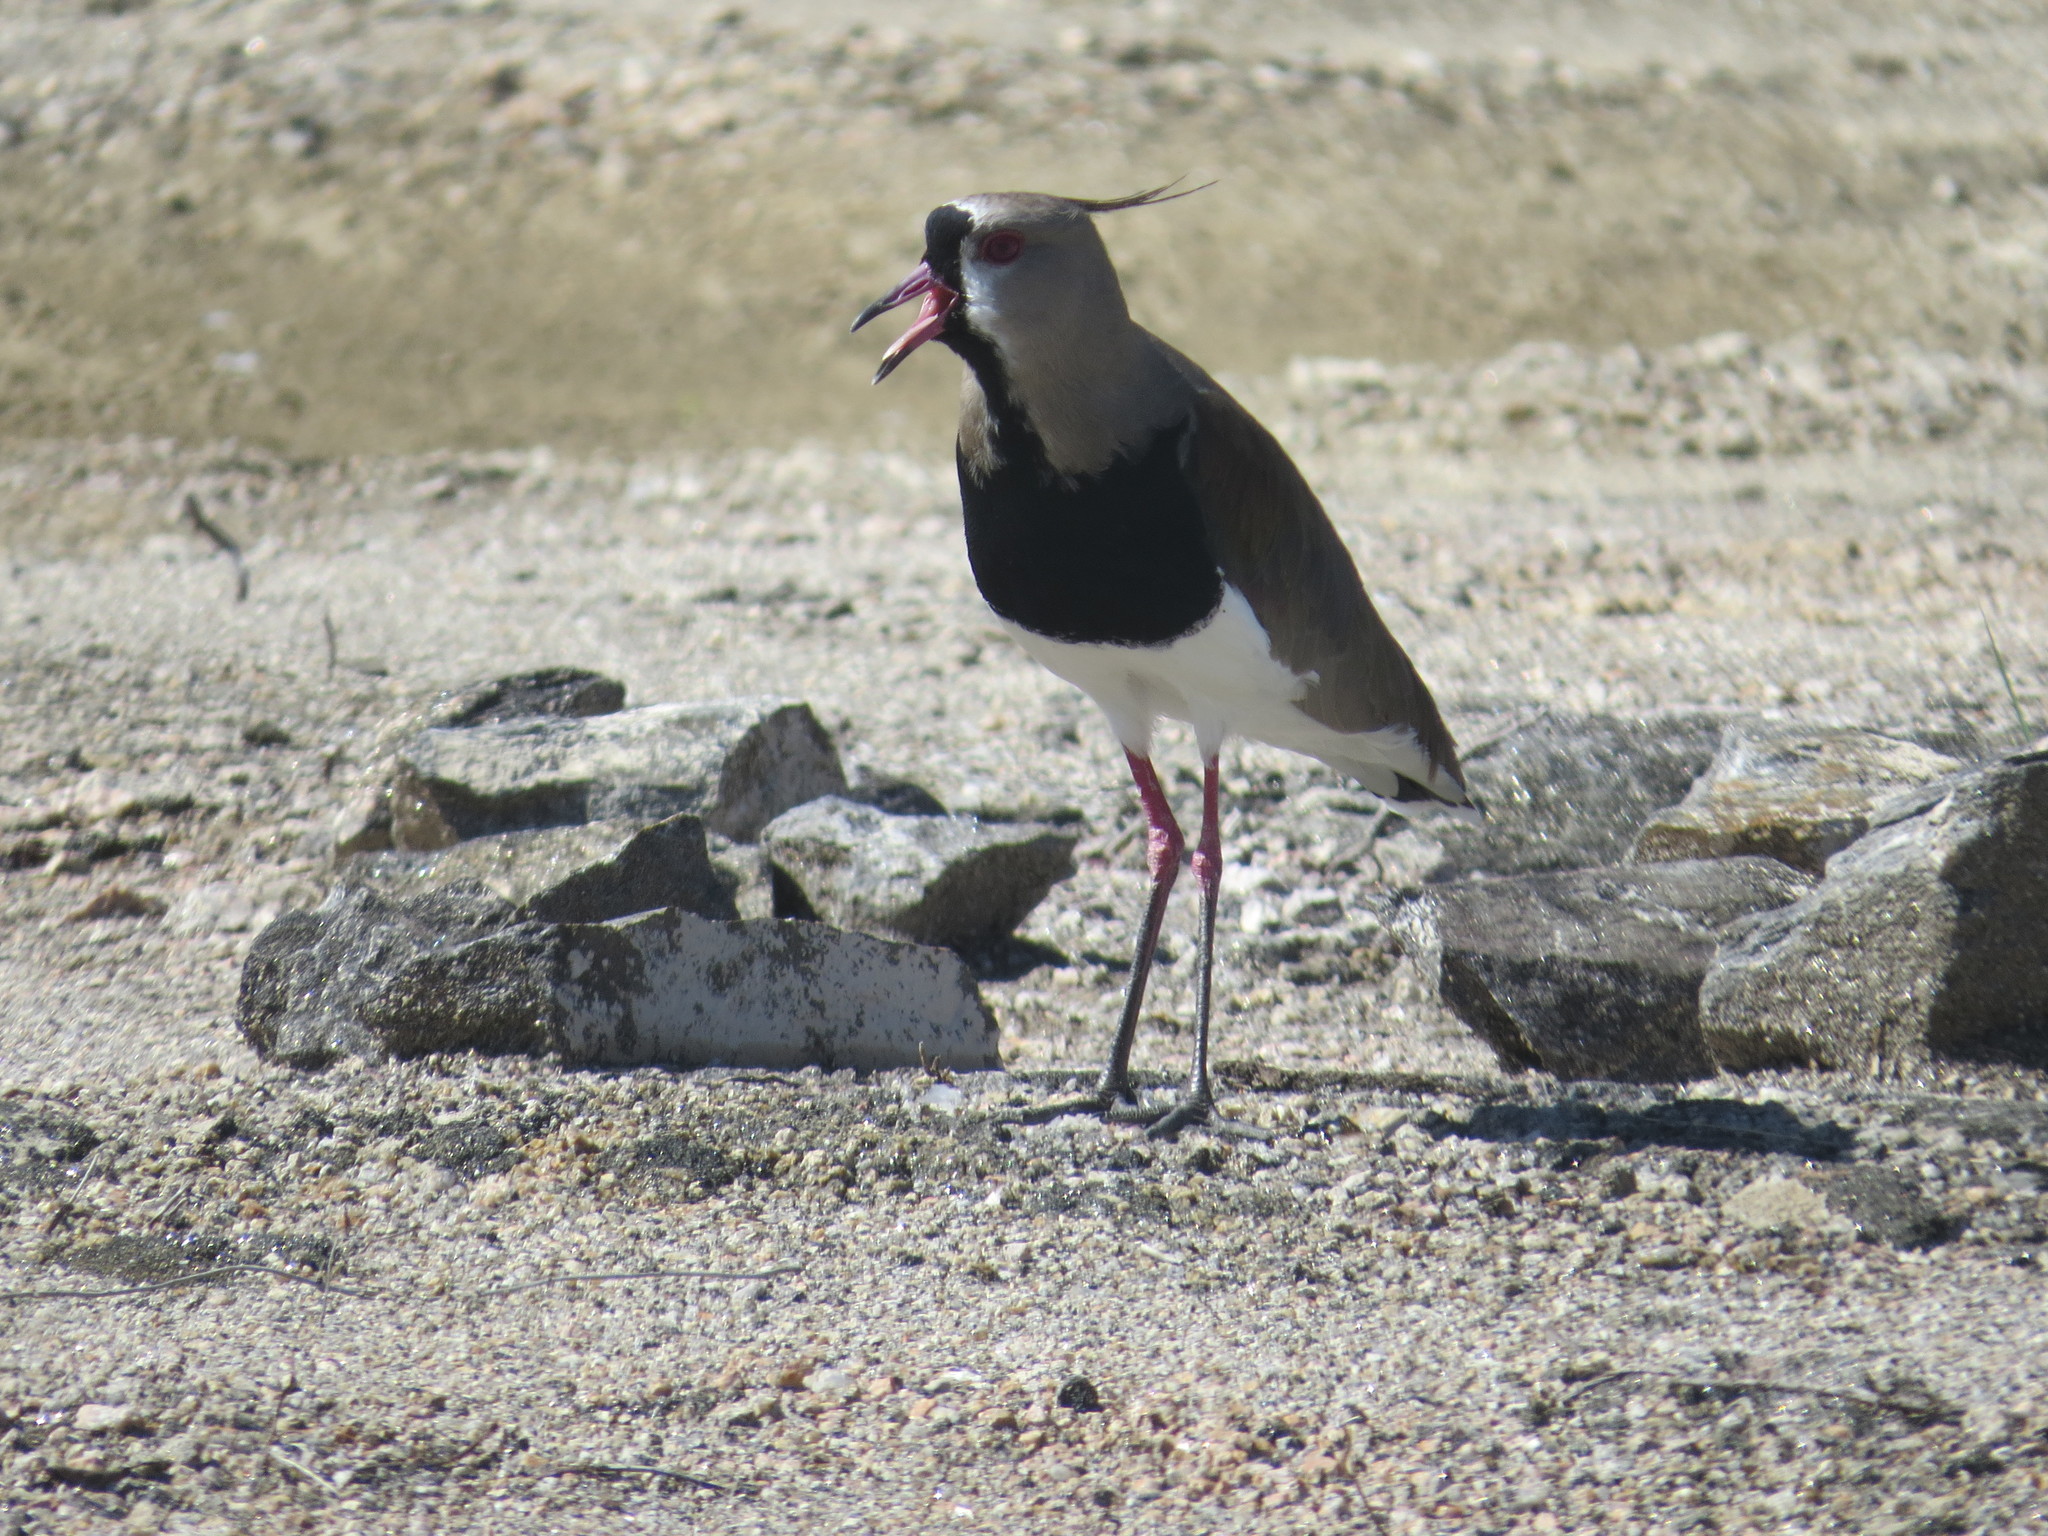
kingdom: Animalia
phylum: Chordata
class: Aves
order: Charadriiformes
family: Charadriidae
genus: Vanellus
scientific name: Vanellus chilensis
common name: Southern lapwing
